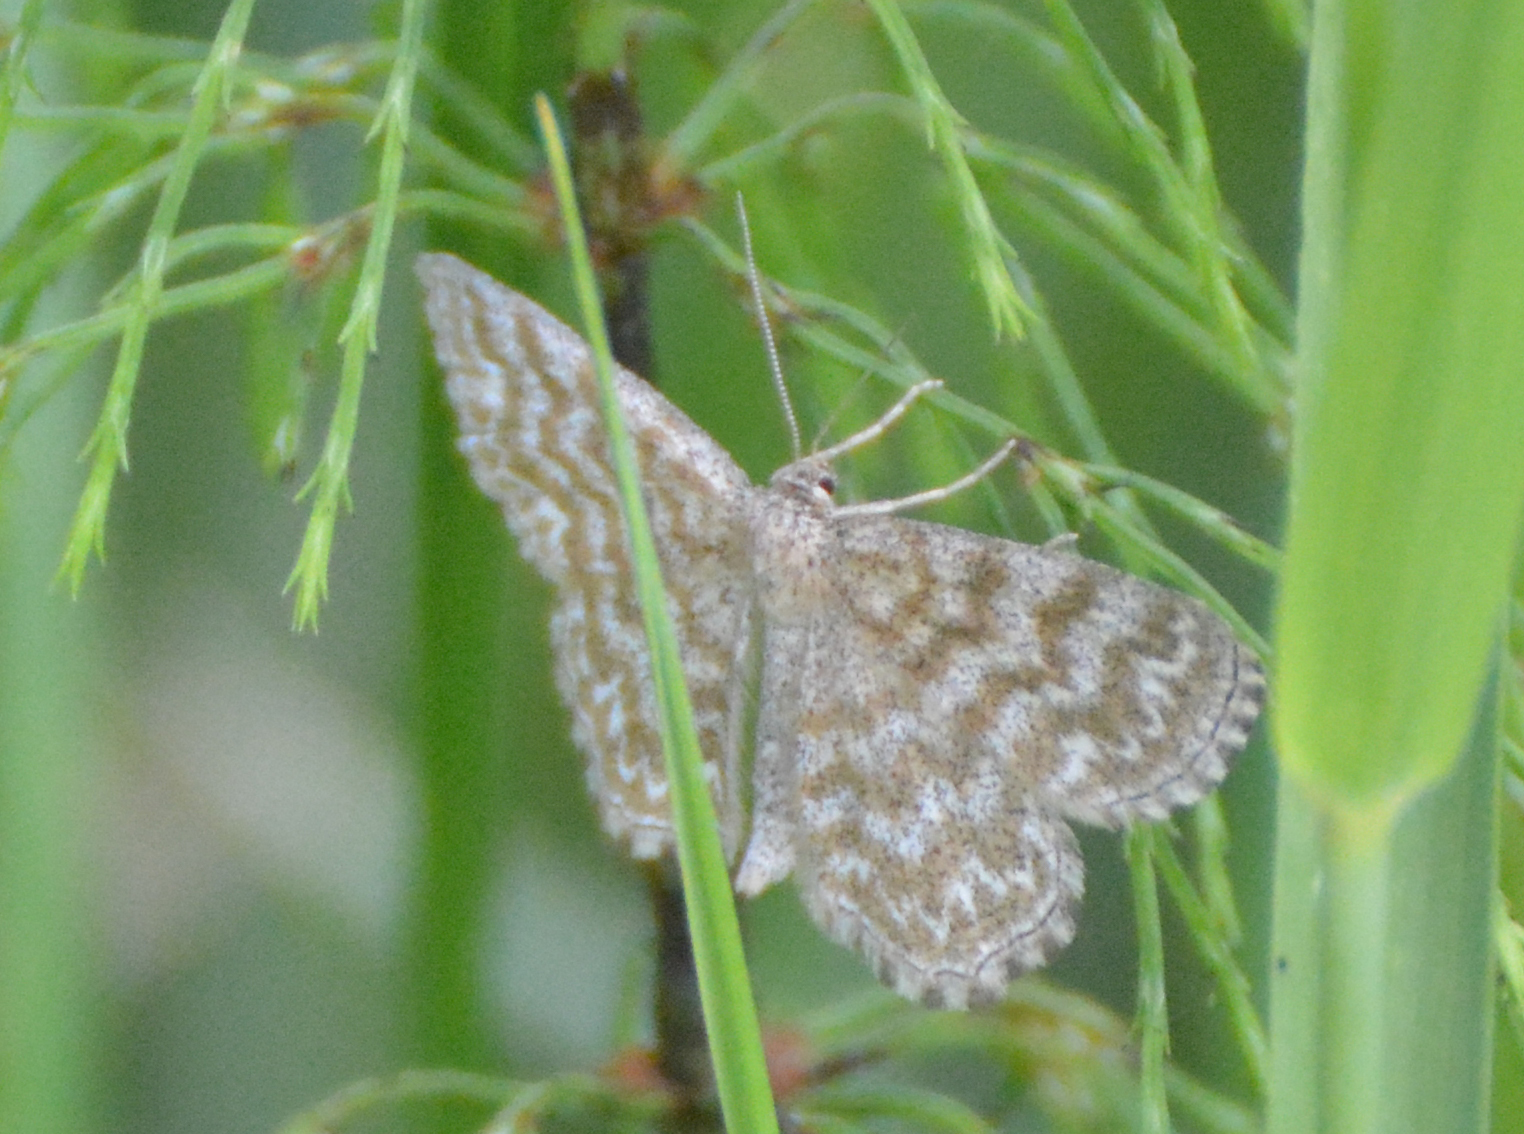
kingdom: Animalia
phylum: Arthropoda
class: Insecta
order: Lepidoptera
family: Geometridae
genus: Scopula
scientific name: Scopula immorata
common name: Lewes wave
